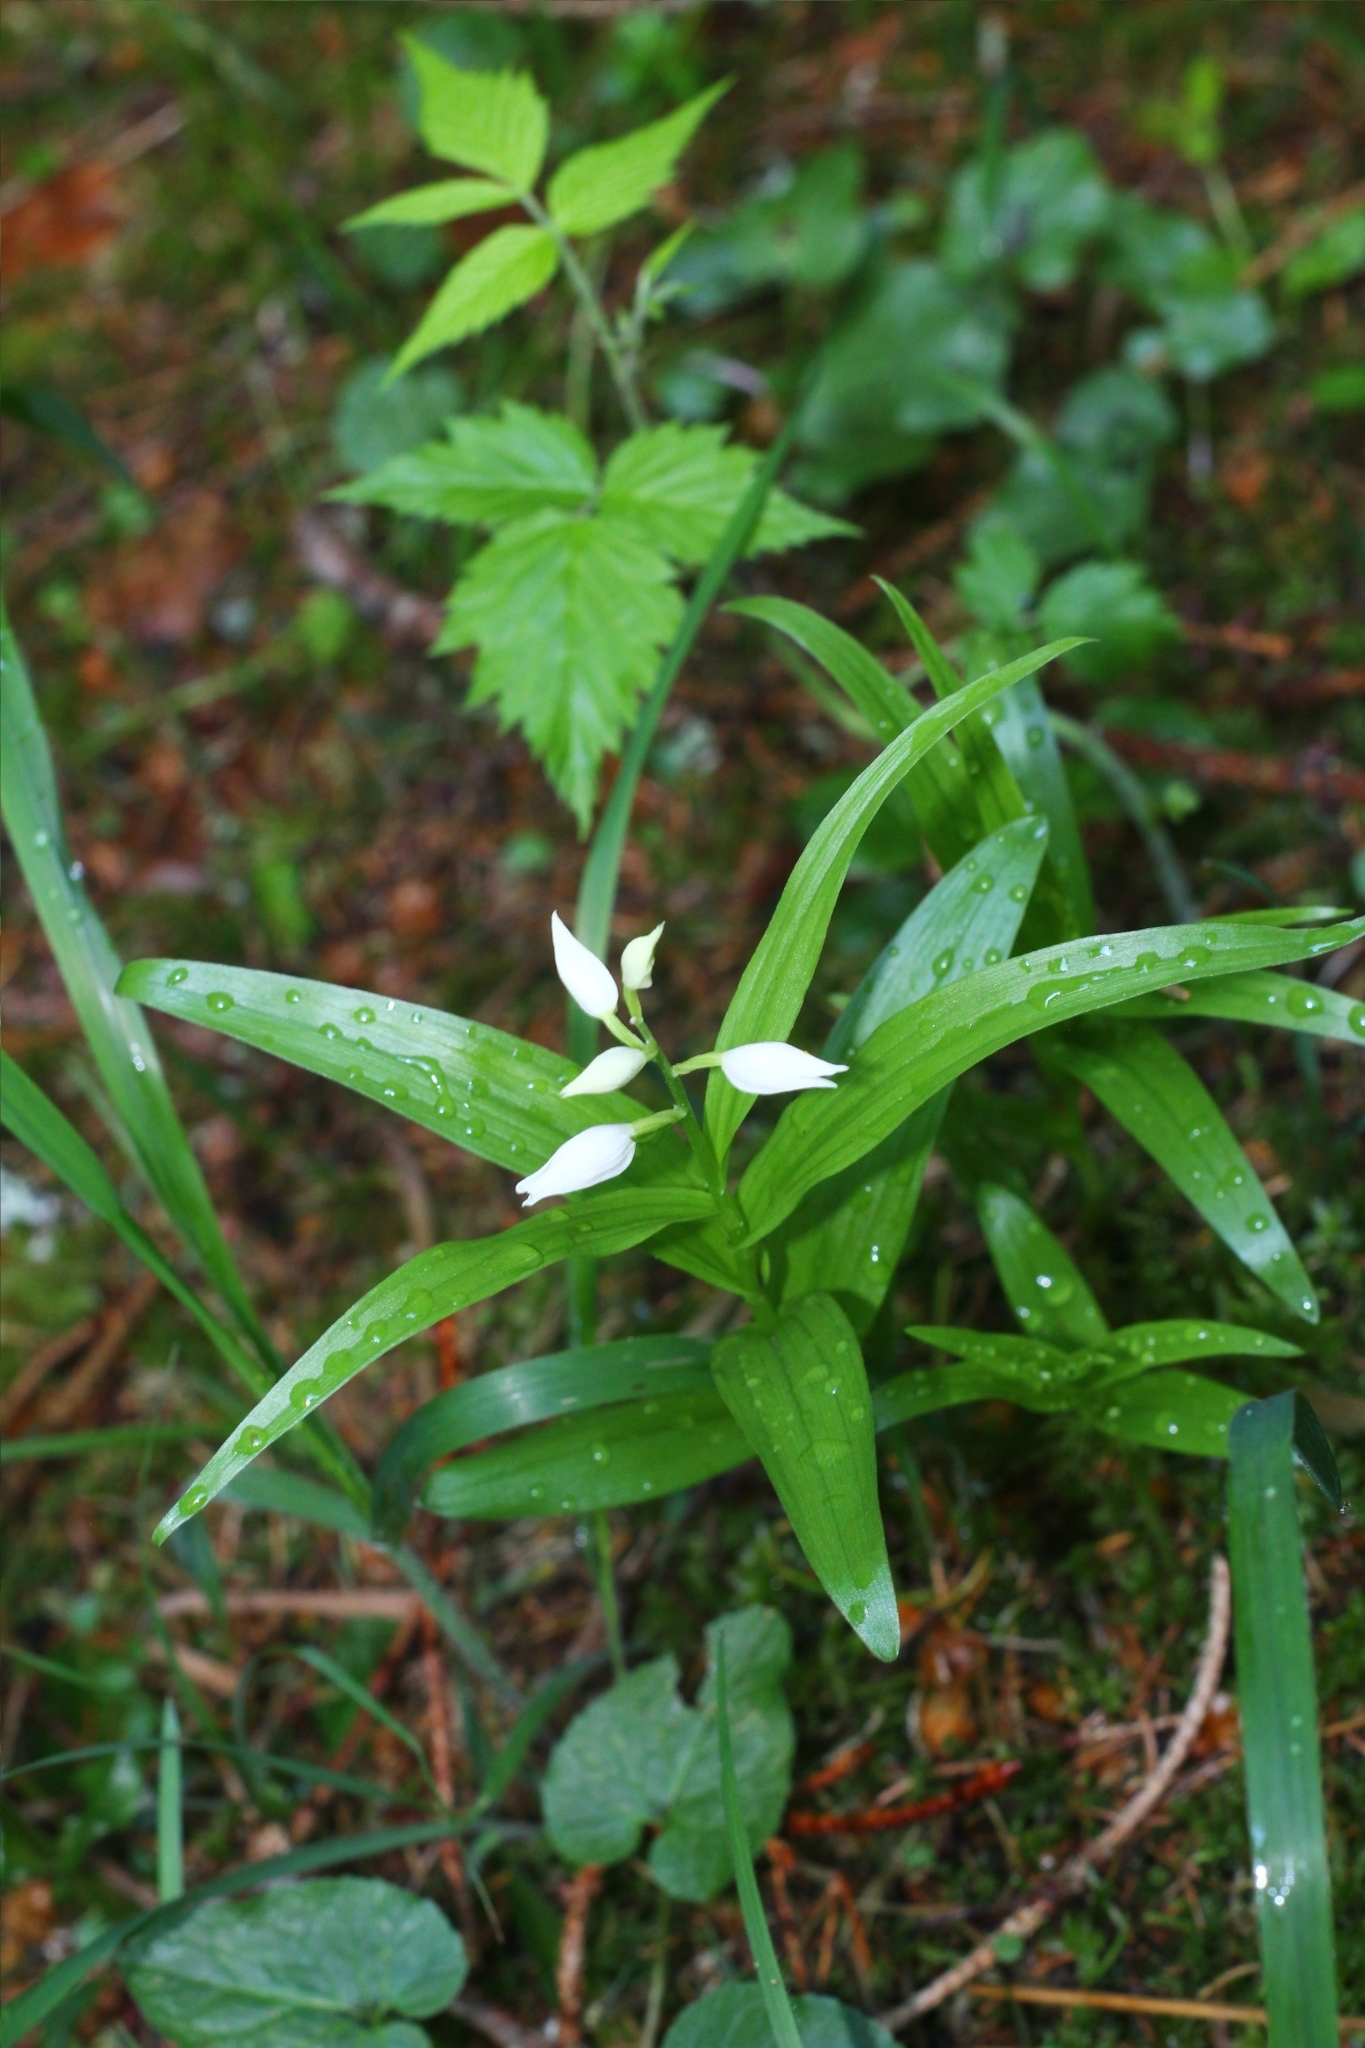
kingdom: Plantae
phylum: Tracheophyta
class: Liliopsida
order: Asparagales
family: Orchidaceae
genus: Cephalanthera
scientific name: Cephalanthera longifolia
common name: Narrow-leaved helleborine
